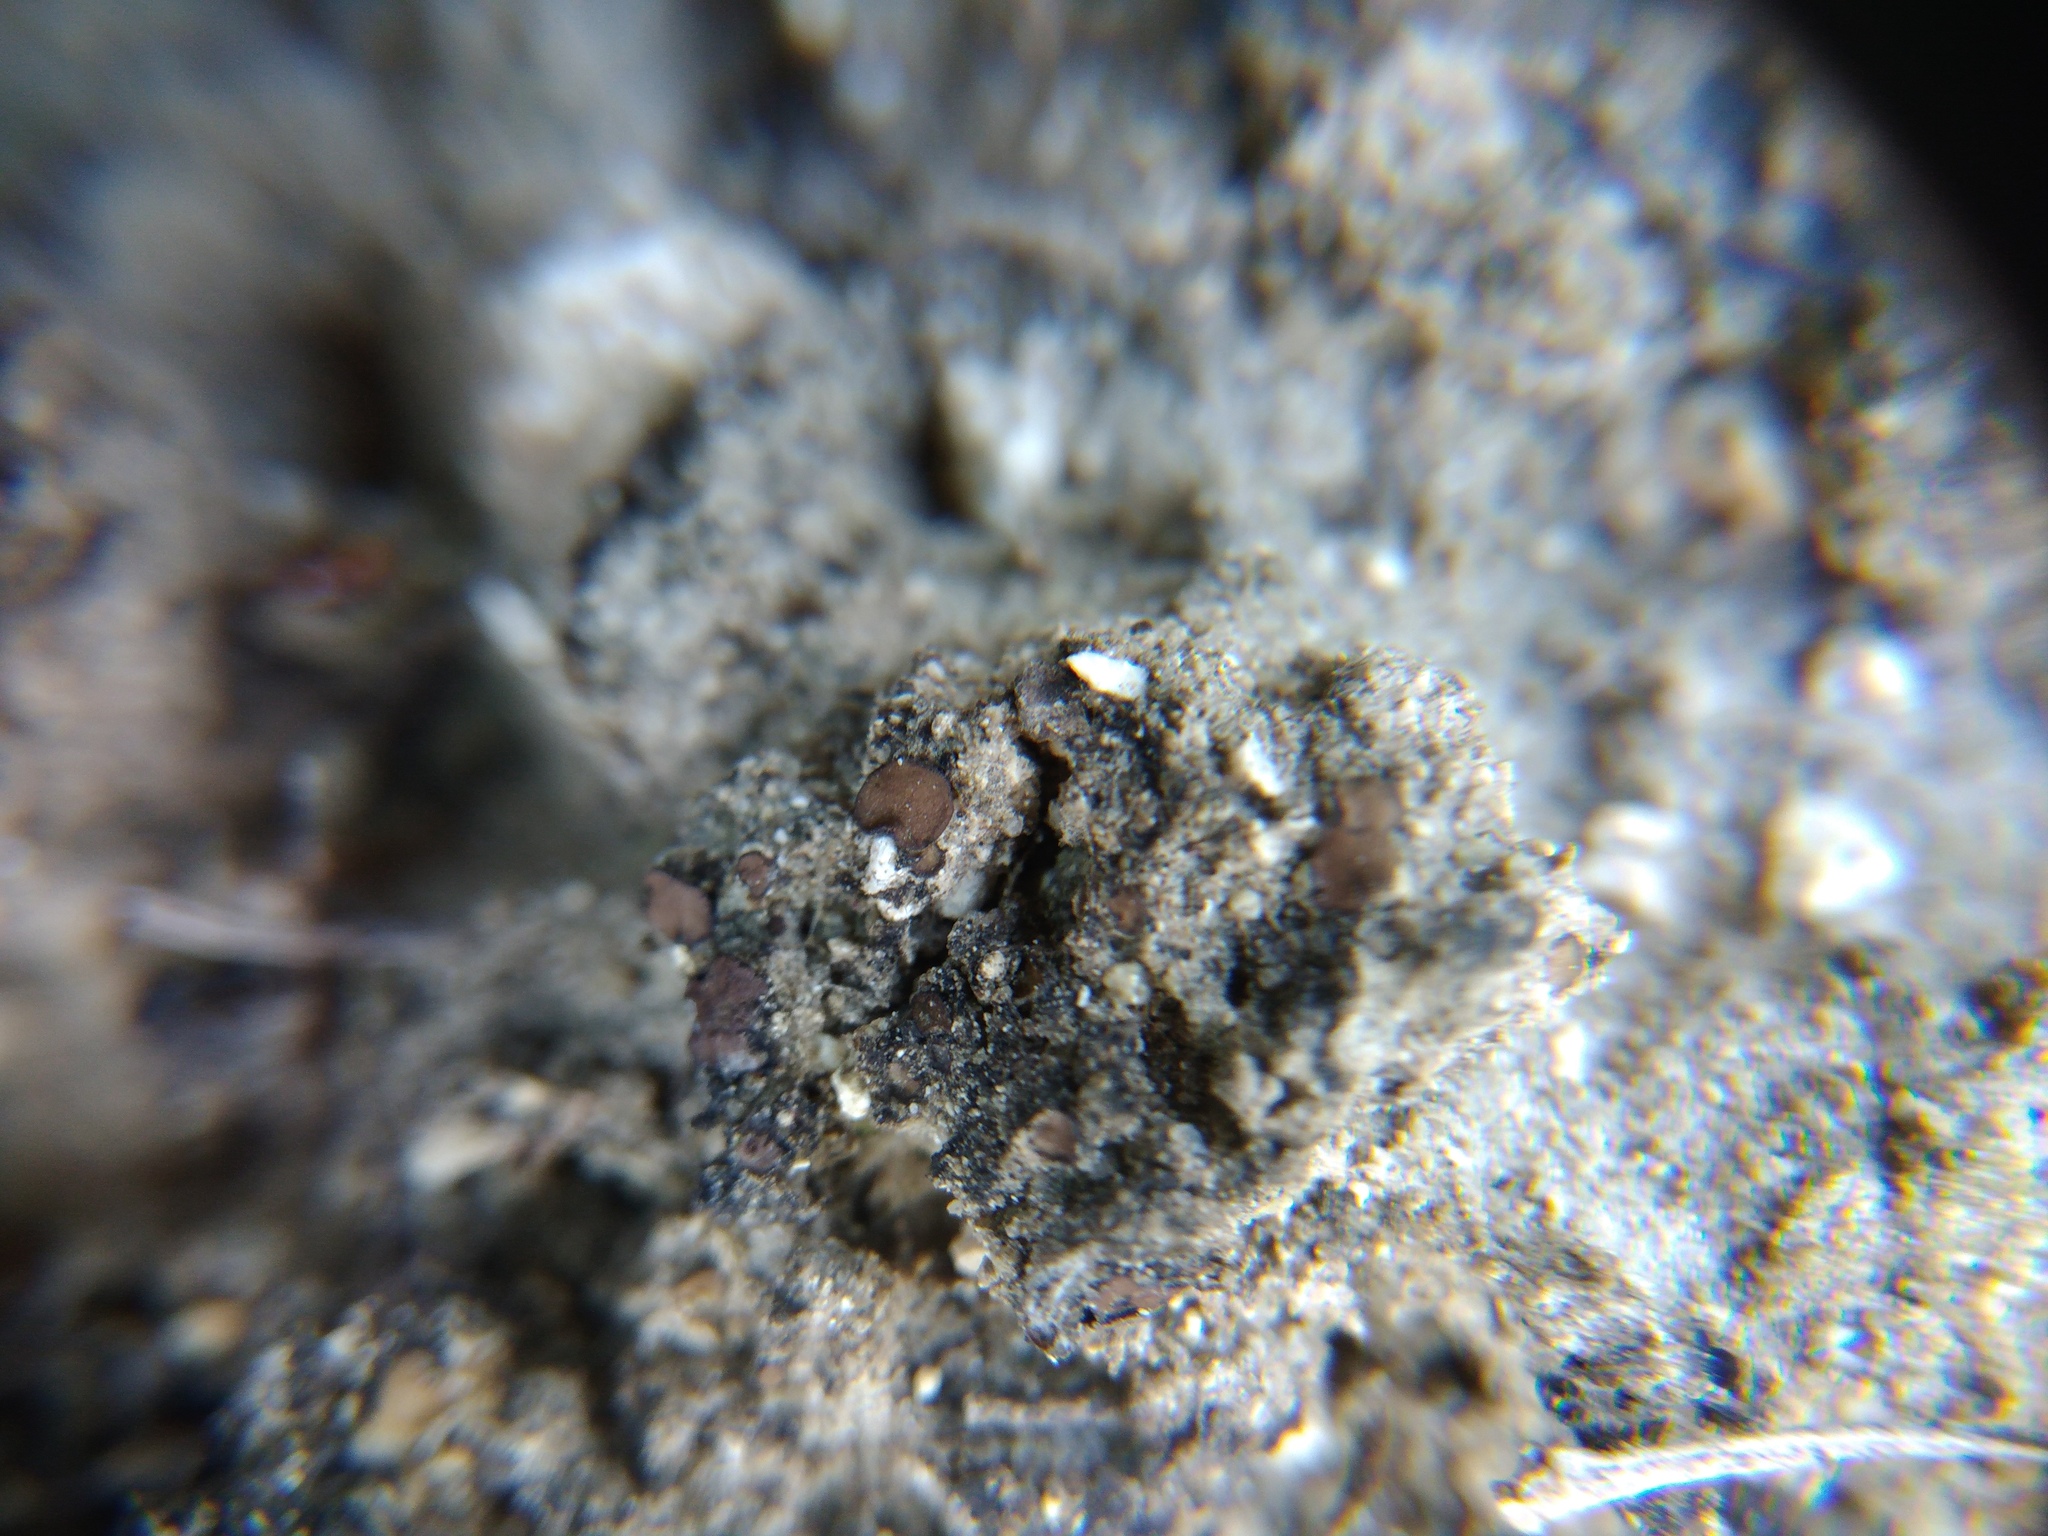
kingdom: Fungi
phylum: Ascomycota
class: Eurotiomycetes
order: Verrucariales
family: Verrucariaceae
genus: Catapyrenium
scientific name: Catapyrenium squamulosum
